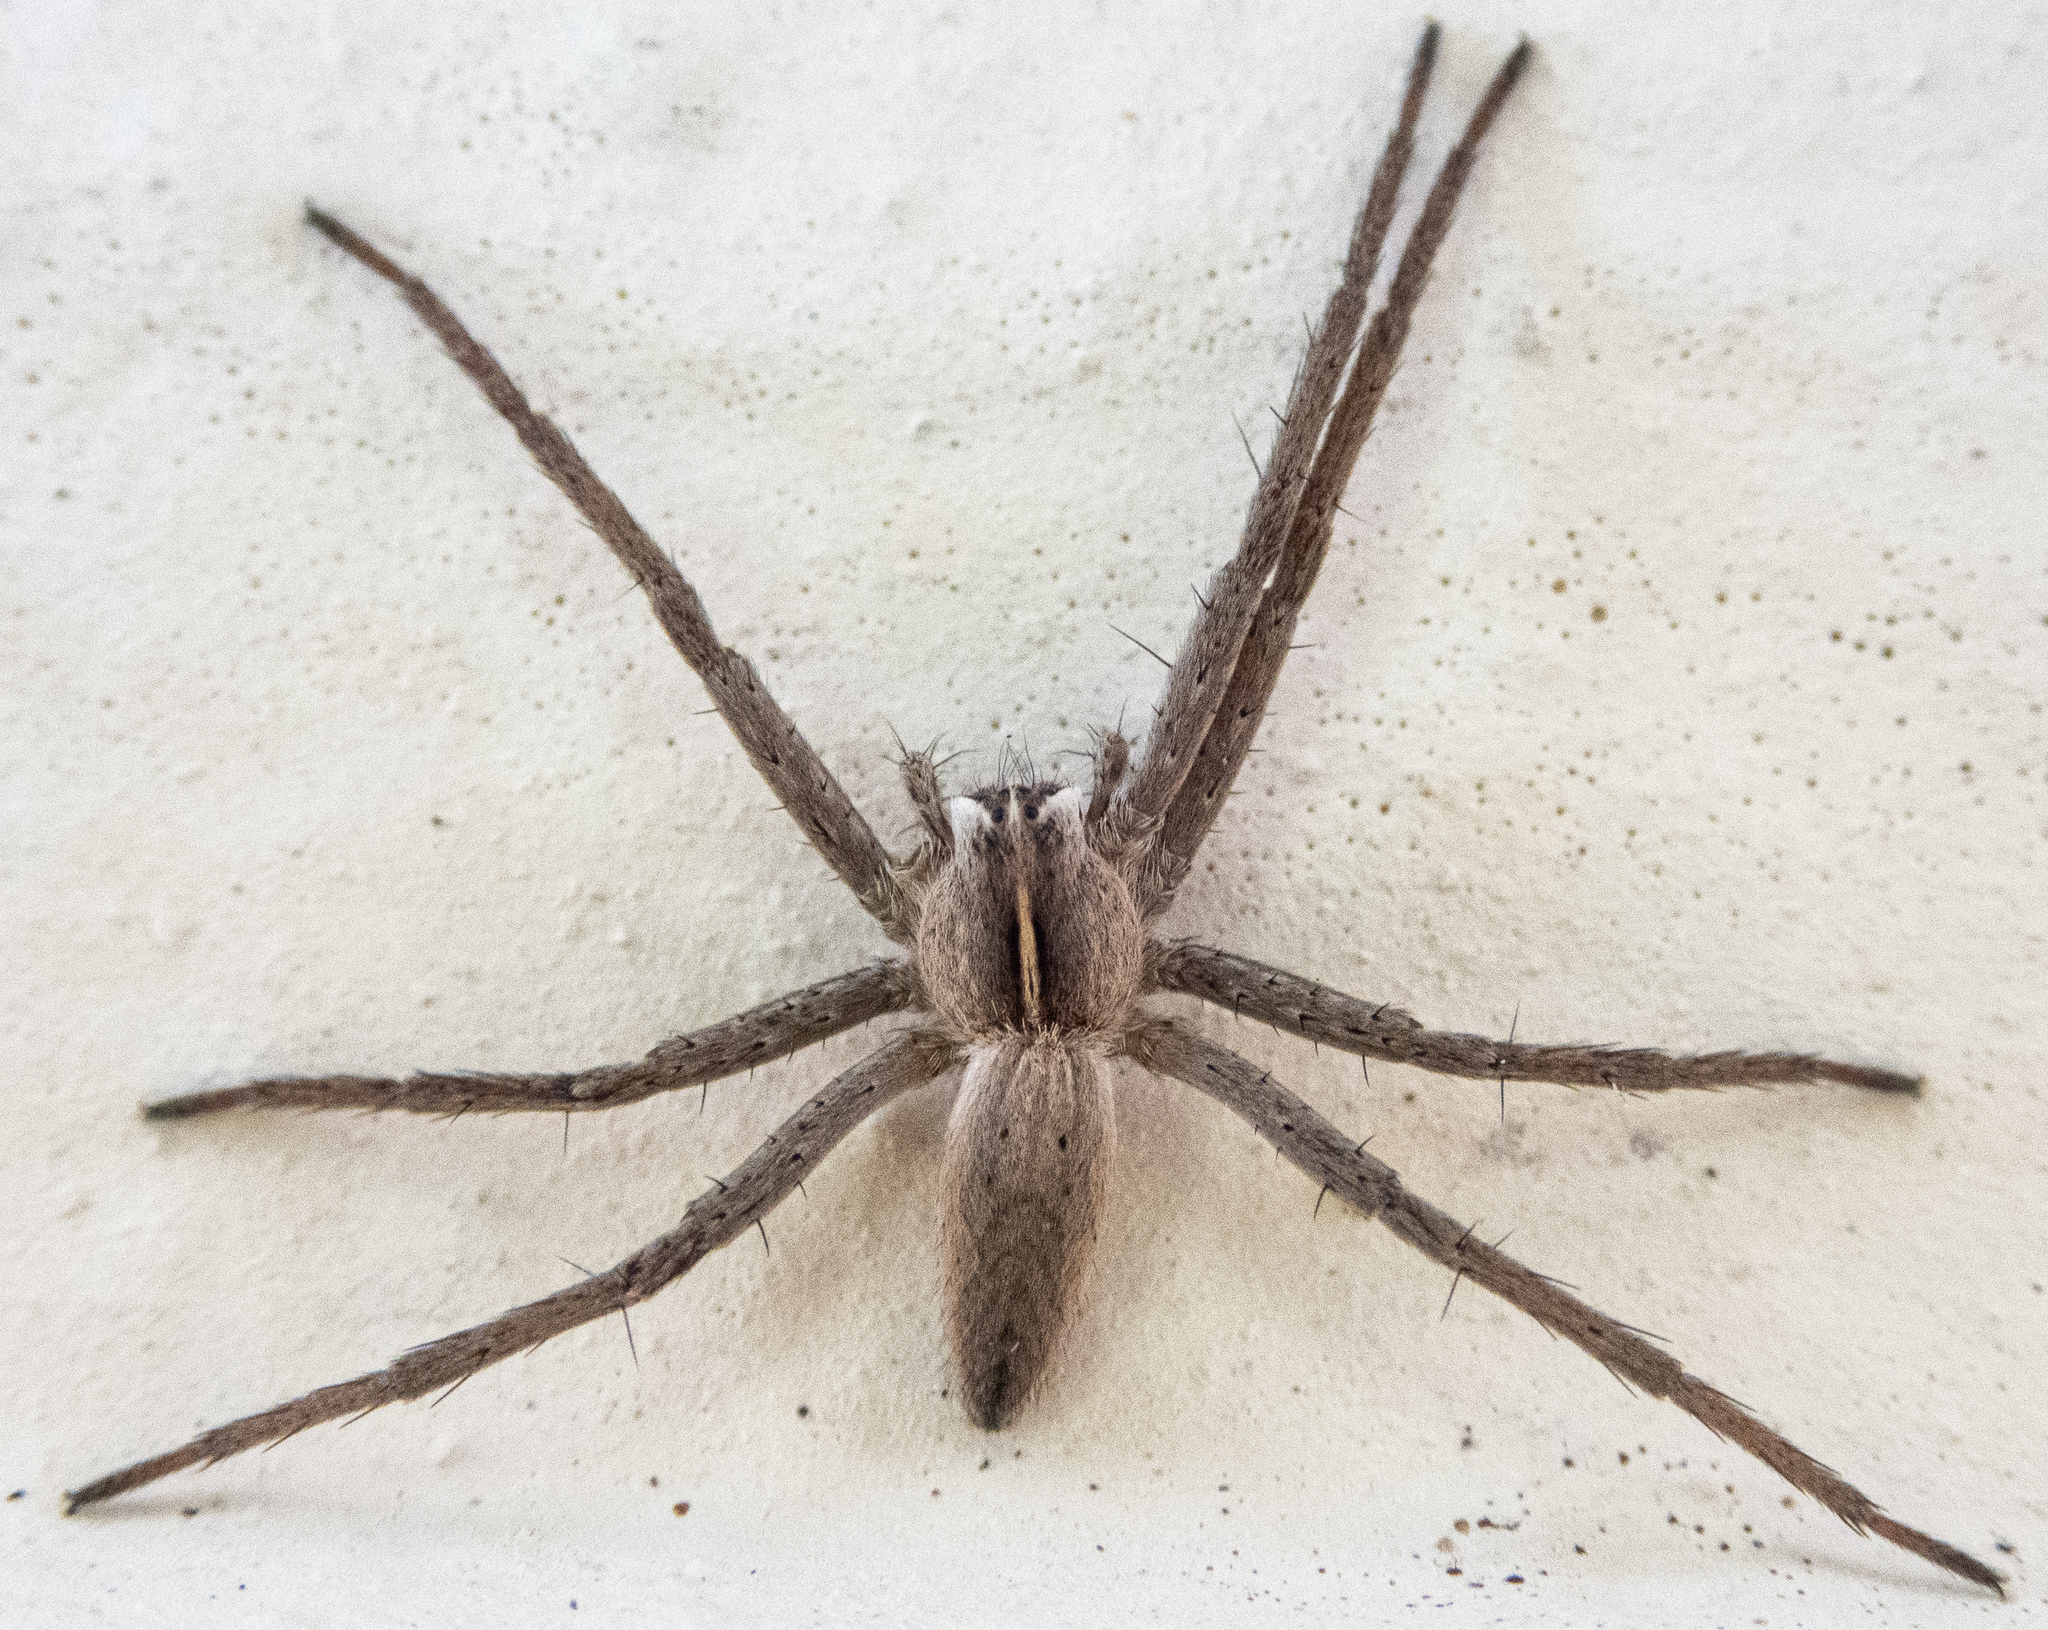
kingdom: Animalia
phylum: Arthropoda
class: Arachnida
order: Araneae
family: Pisauridae
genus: Pisaura
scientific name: Pisaura mirabilis
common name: Tent spider
